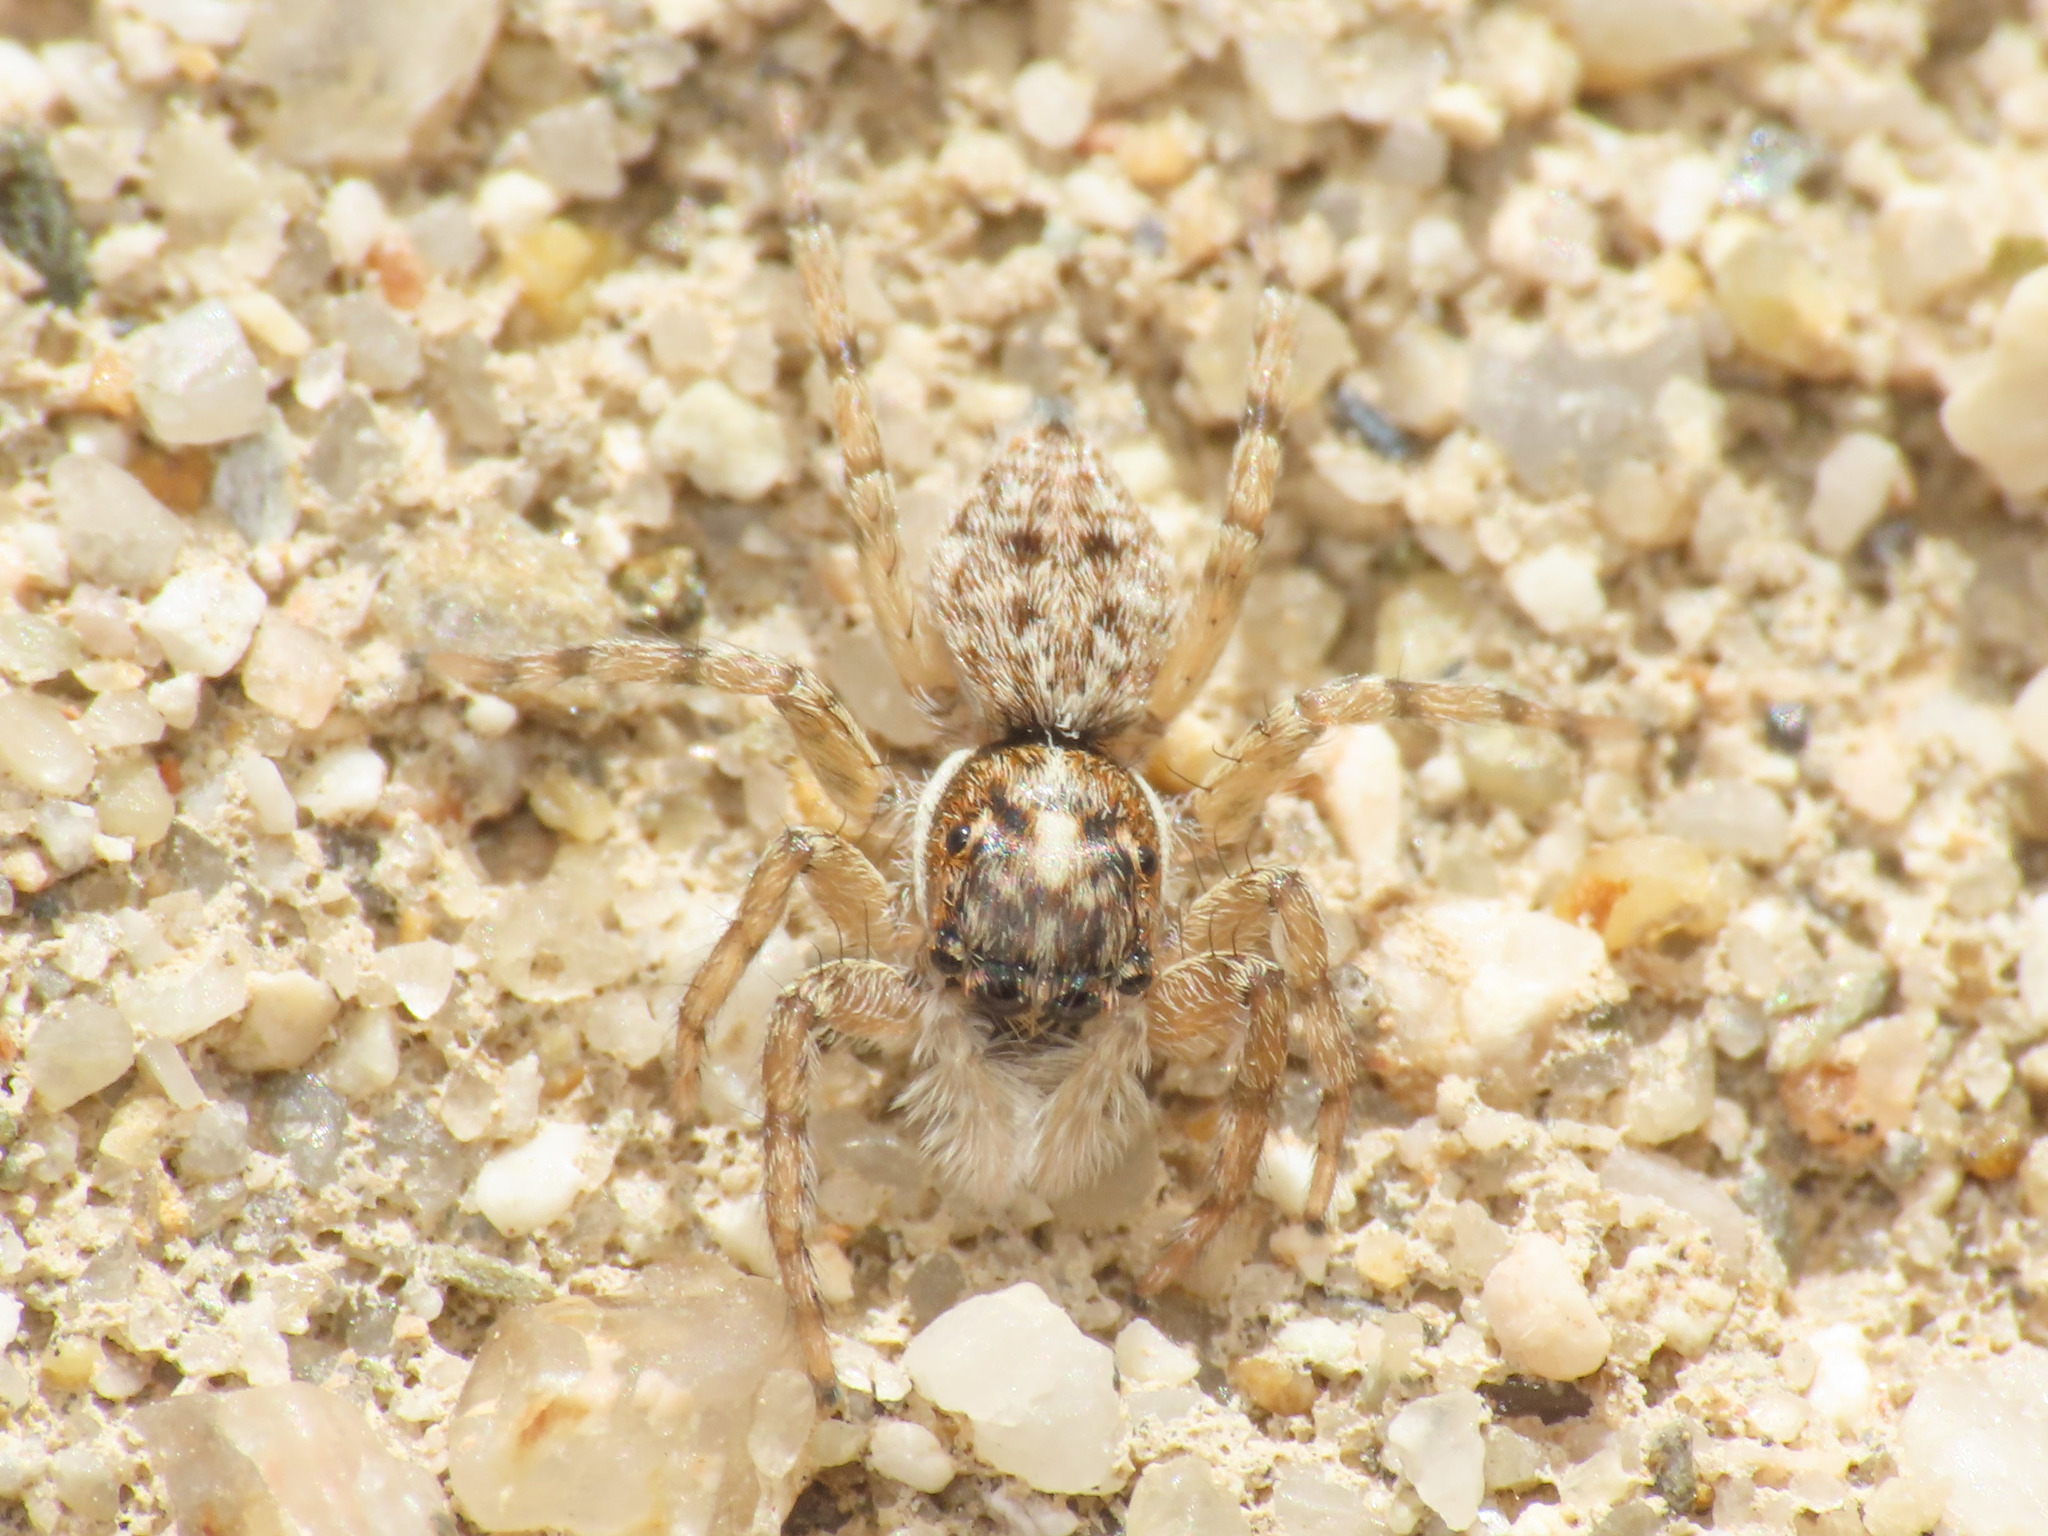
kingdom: Animalia
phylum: Arthropoda
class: Arachnida
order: Araneae
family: Salticidae
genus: Menemerus
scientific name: Menemerus semilimbatus
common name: Jumping spider
